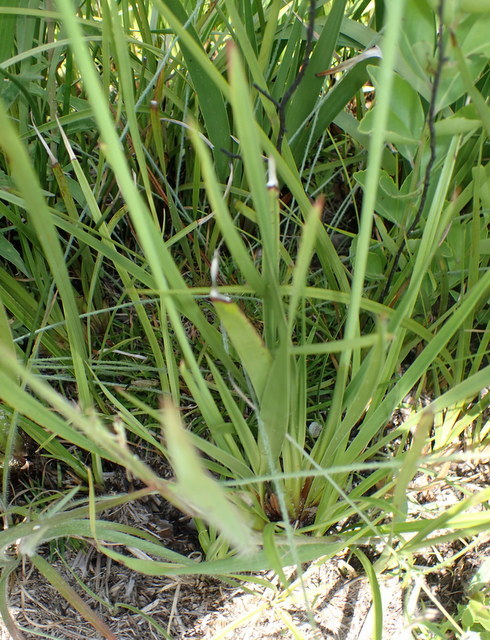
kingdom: Plantae
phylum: Tracheophyta
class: Liliopsida
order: Poales
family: Xyridaceae
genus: Xyris
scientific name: Xyris ambigua
